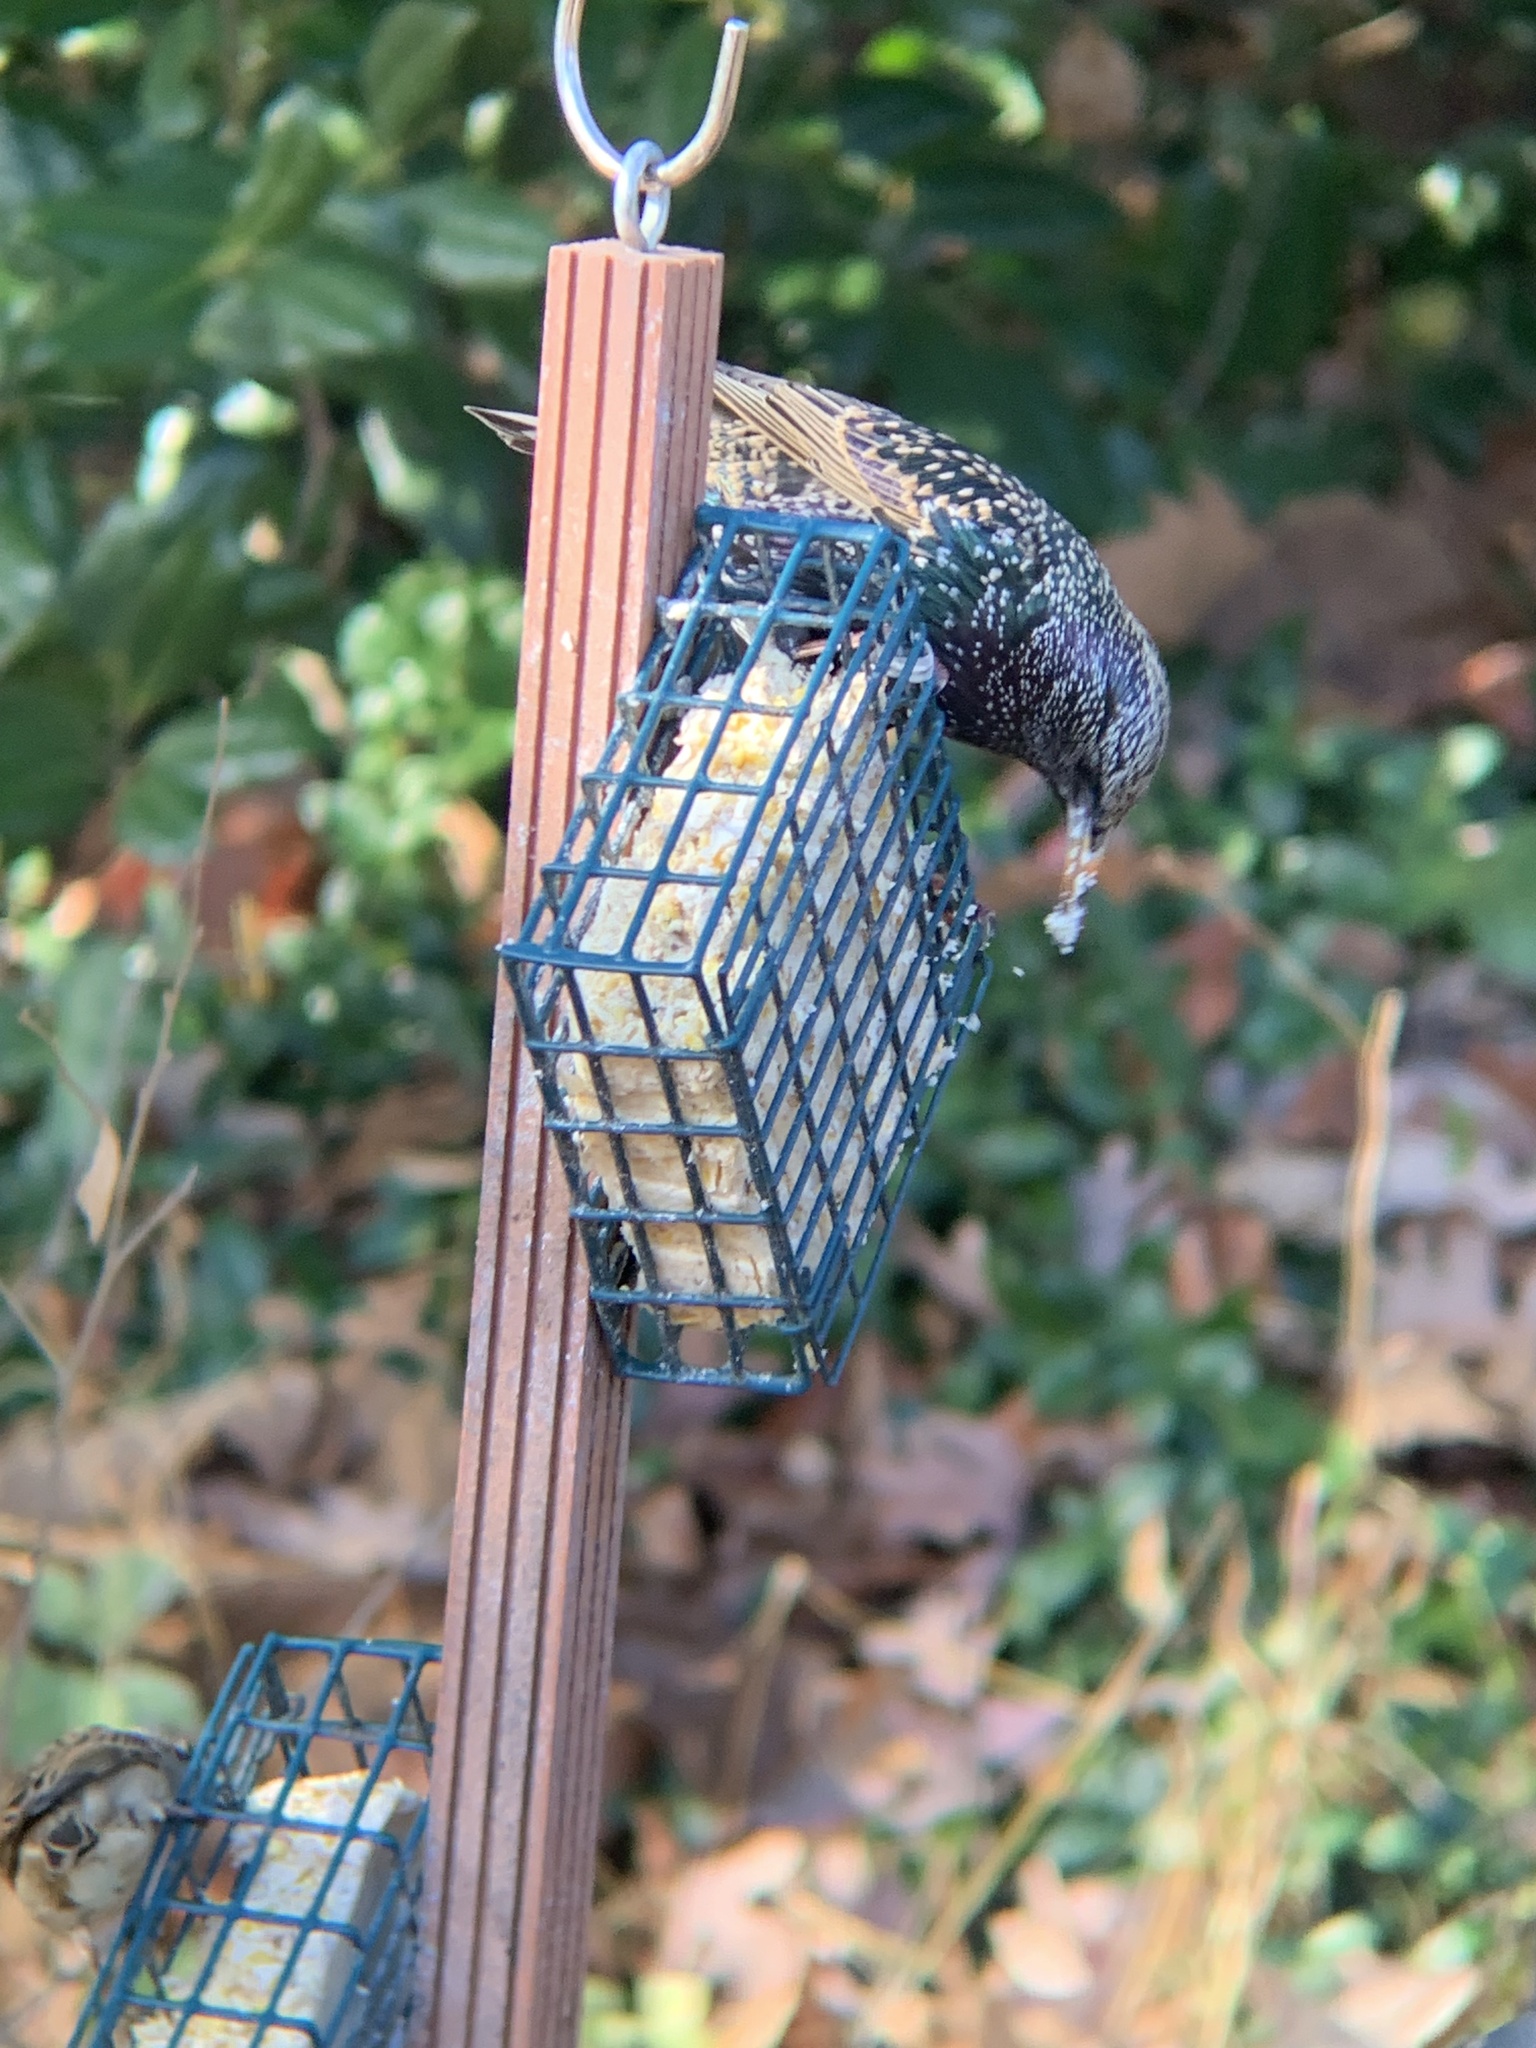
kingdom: Animalia
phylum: Chordata
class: Aves
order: Passeriformes
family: Sturnidae
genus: Sturnus
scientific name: Sturnus vulgaris
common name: Common starling
